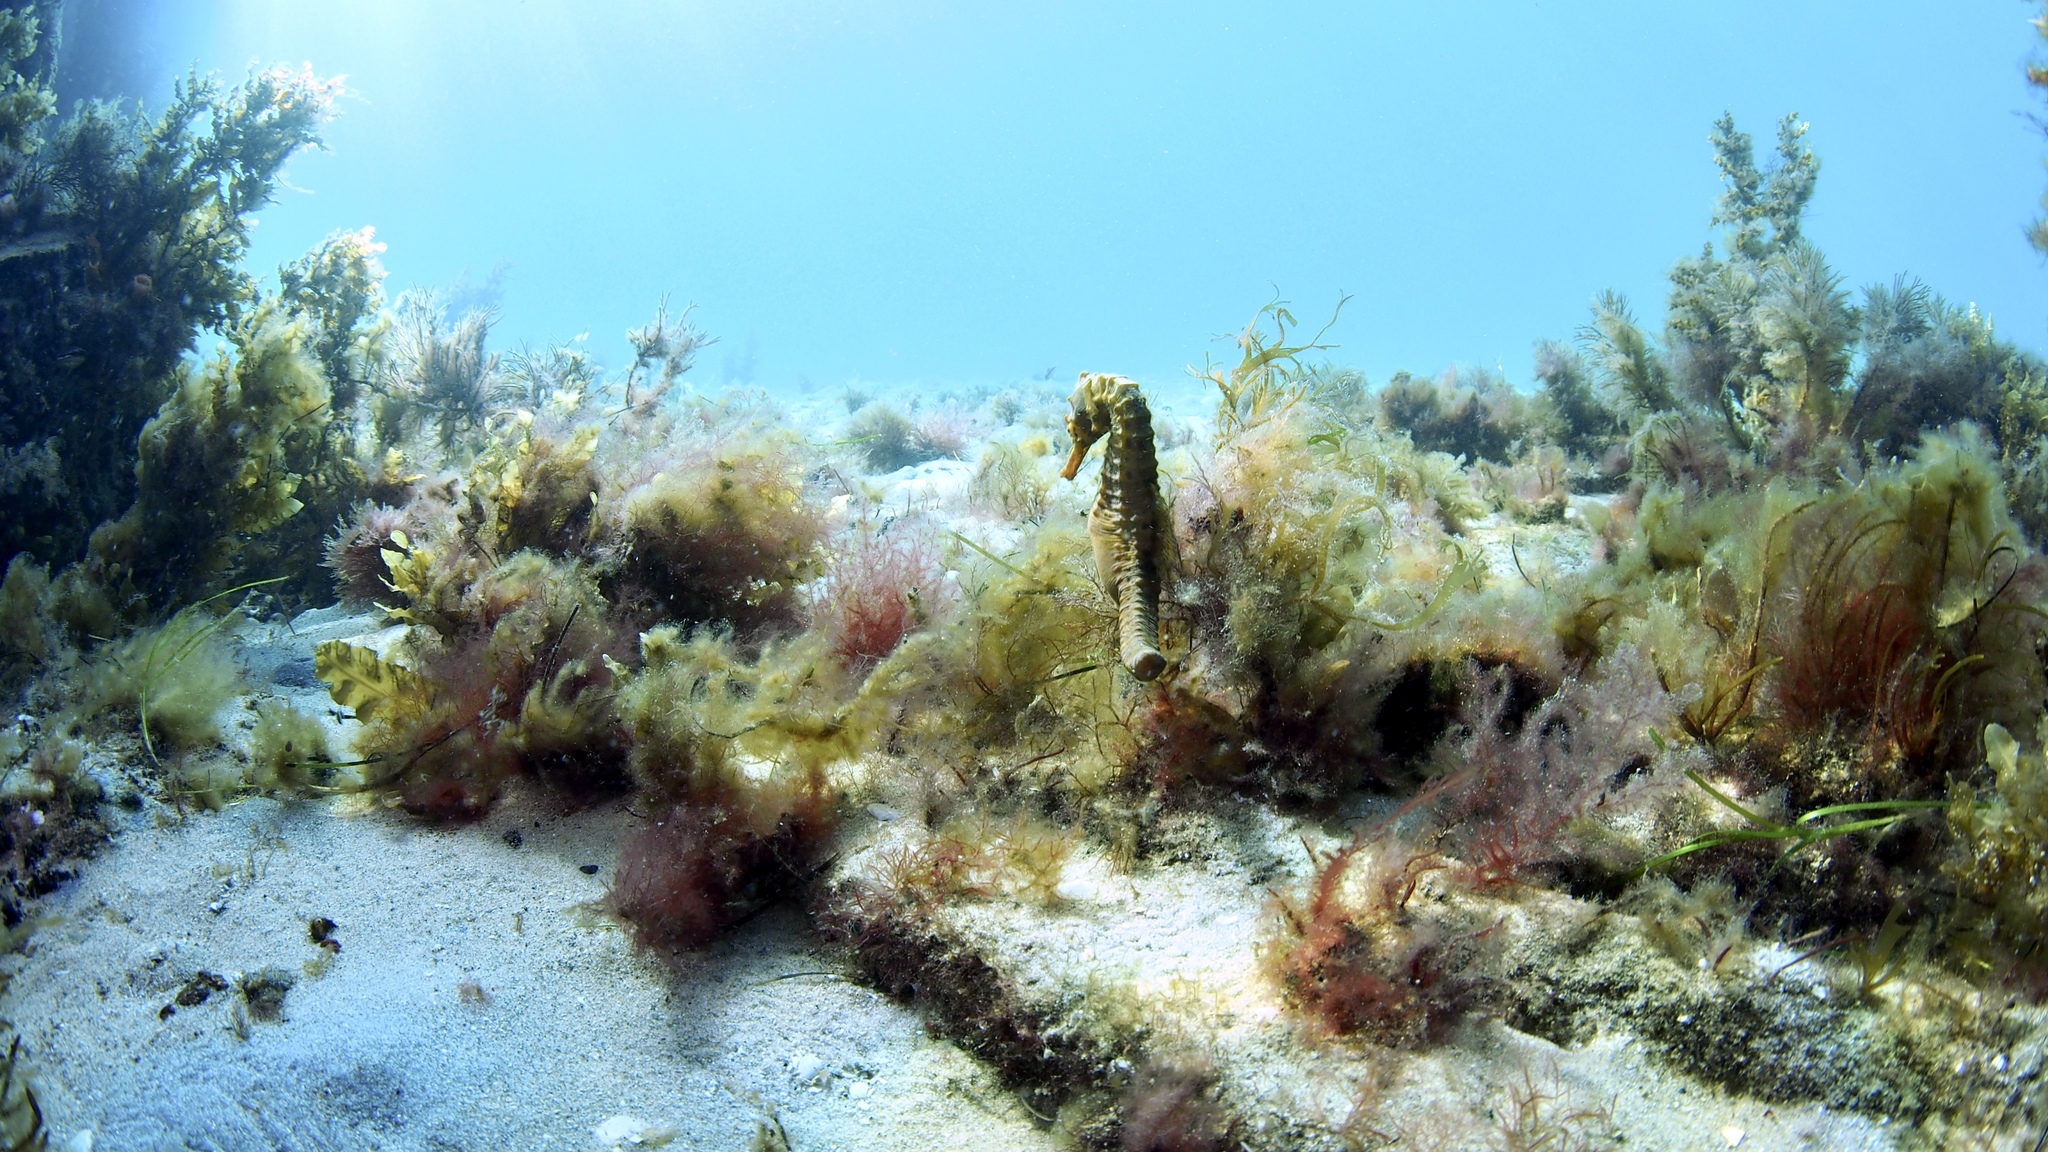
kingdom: Animalia
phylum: Chordata
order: Syngnathiformes
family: Syngnathidae
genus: Hippocampus
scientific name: Hippocampus abdominalis
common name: Big-belly seahorse
